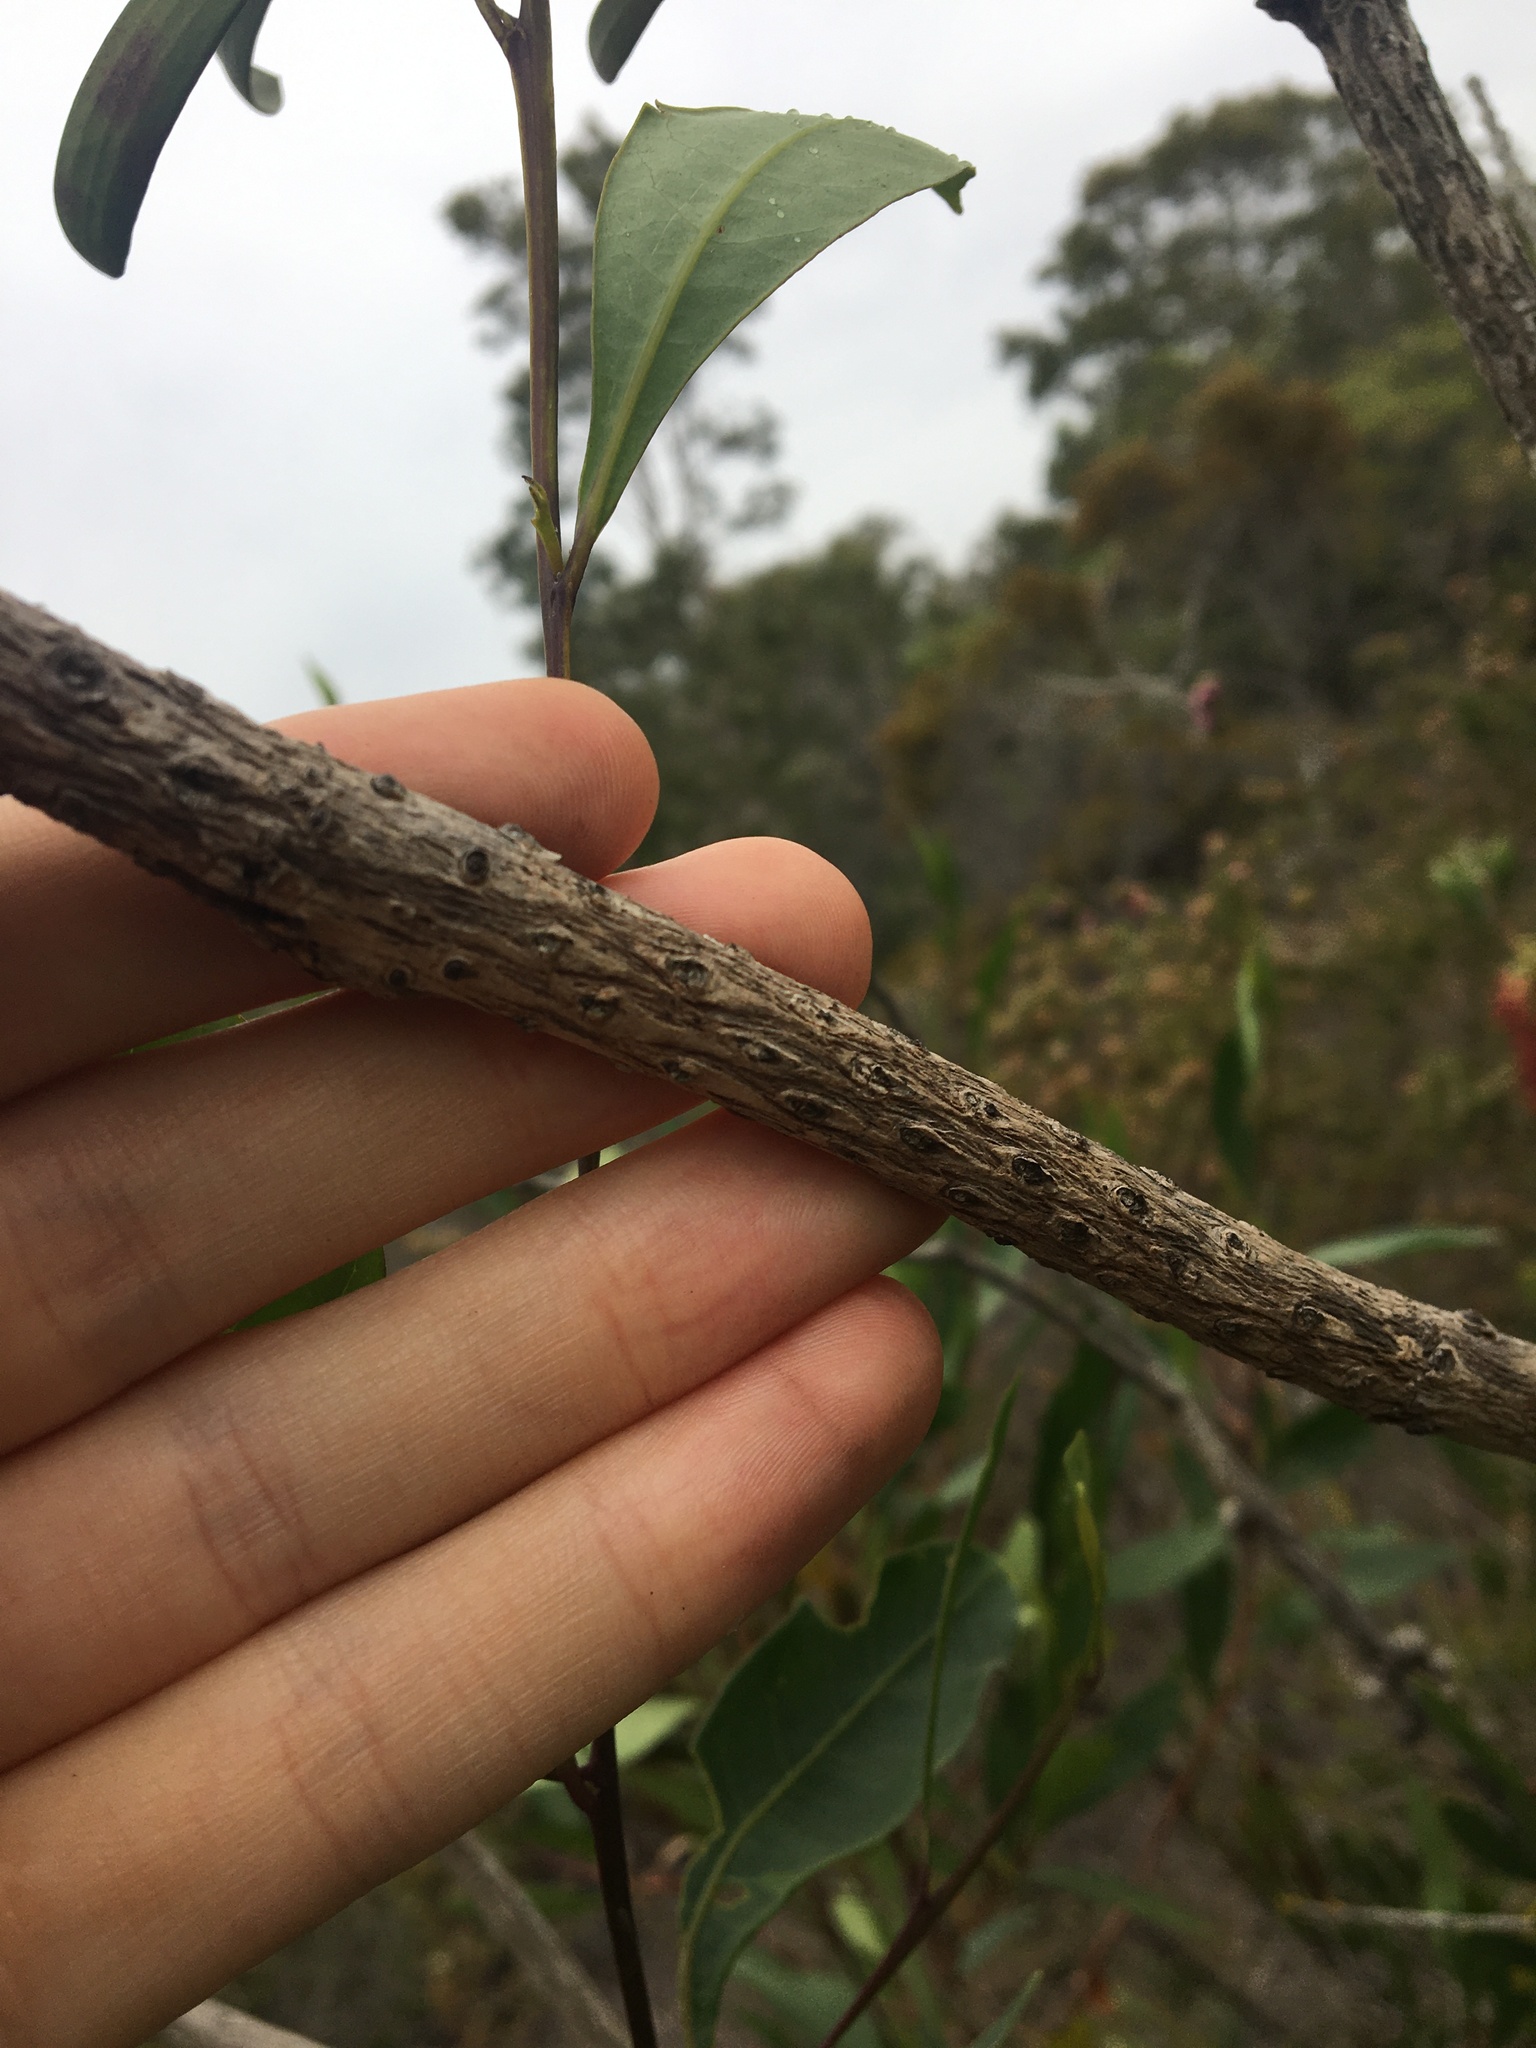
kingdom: Plantae
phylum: Tracheophyta
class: Magnoliopsida
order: Myrtales
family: Myrtaceae
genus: Callistemon
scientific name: Callistemon pachyphyllus
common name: Wallum bottlebrush
